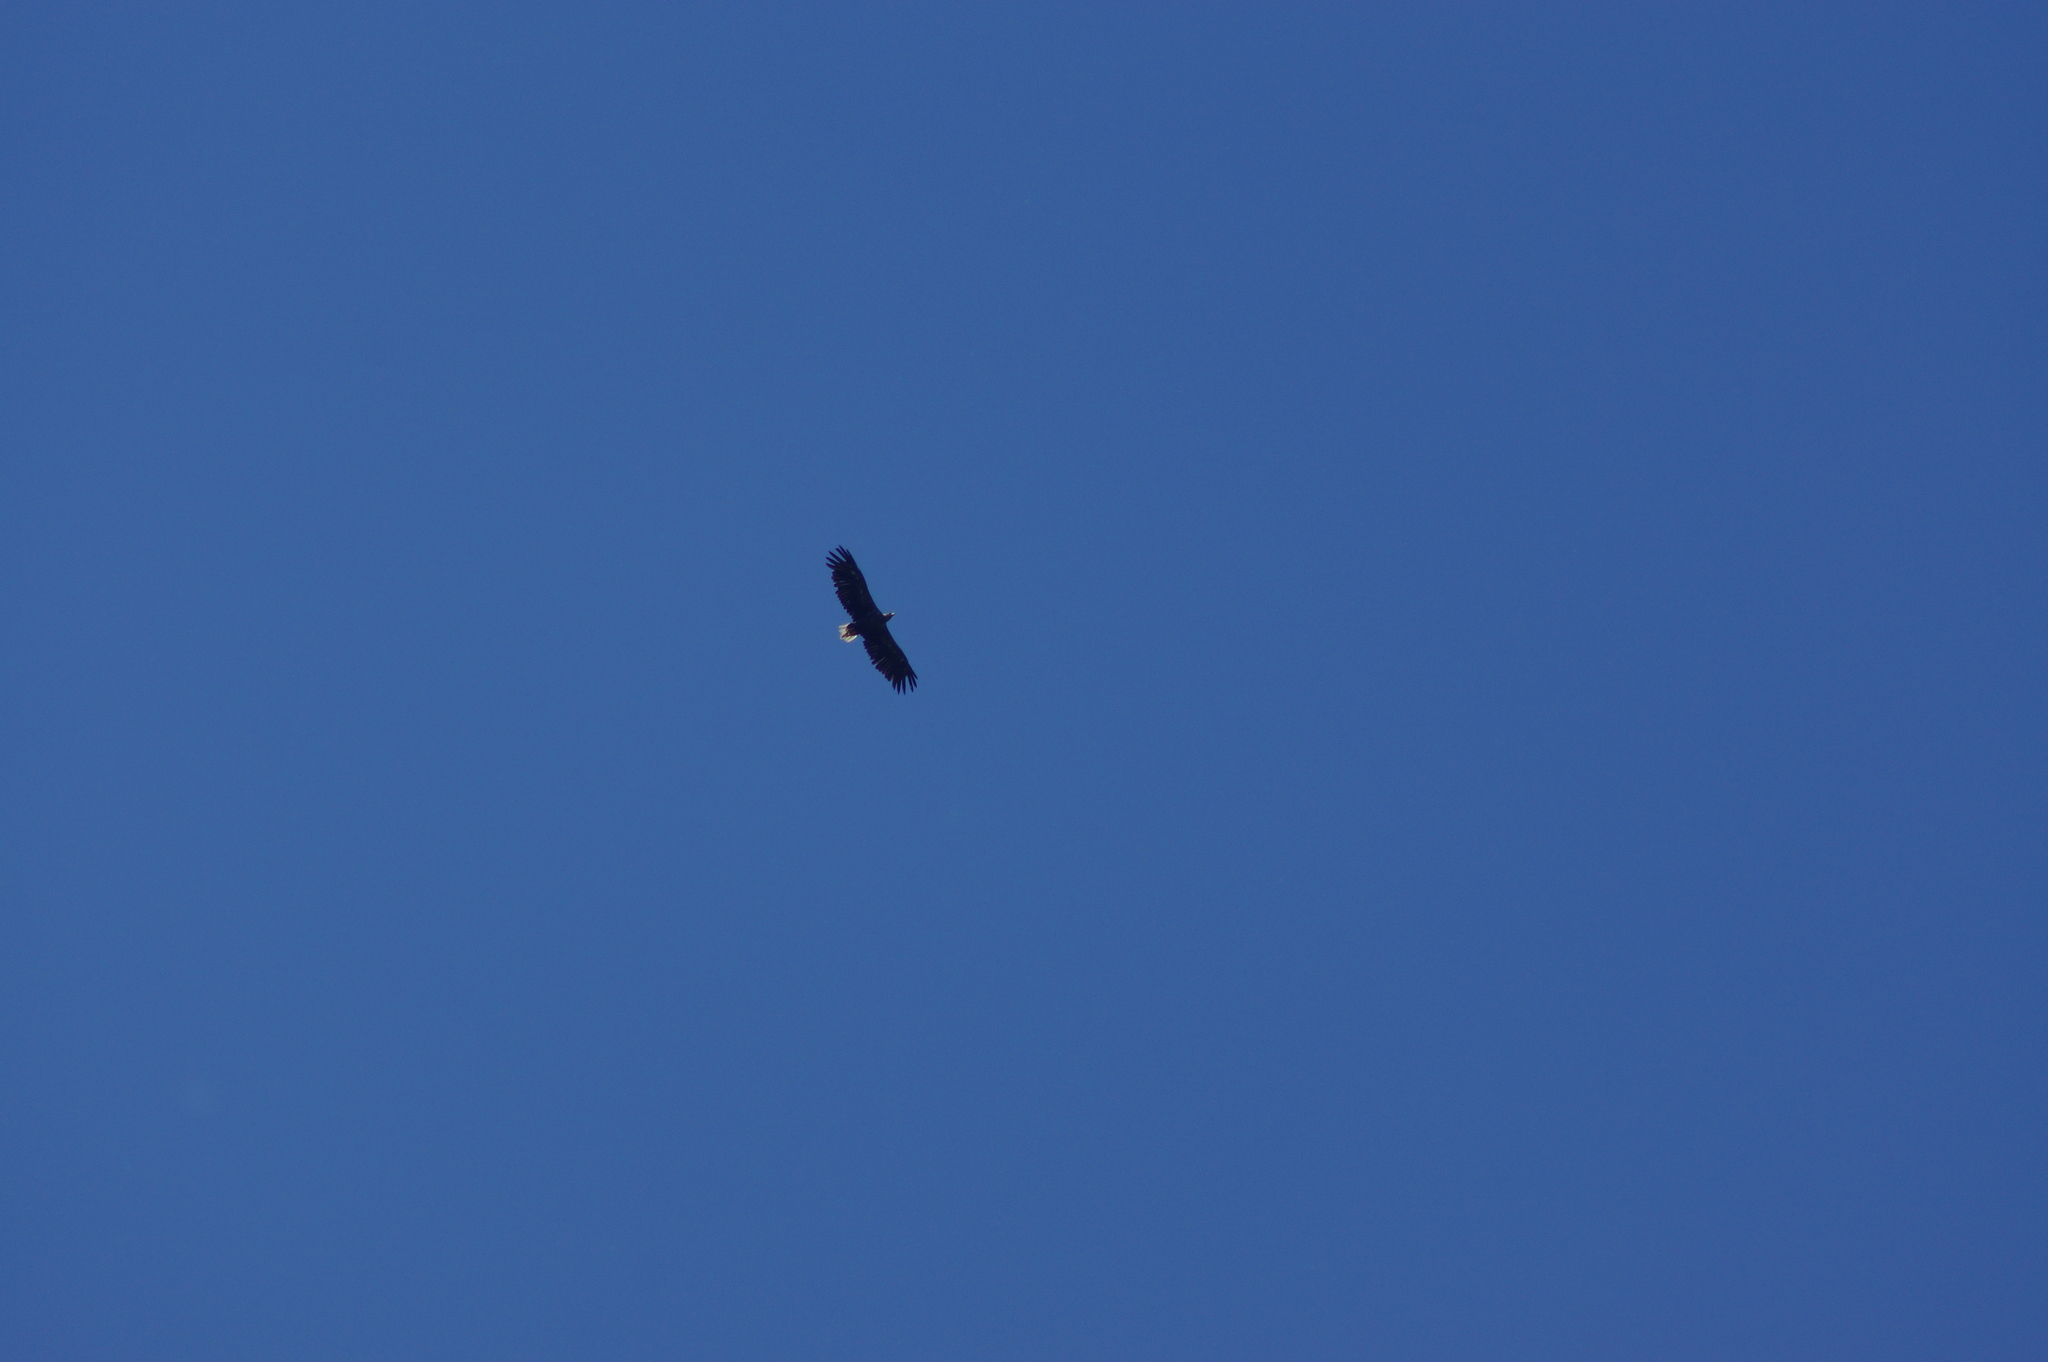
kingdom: Animalia
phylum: Chordata
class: Aves
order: Accipitriformes
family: Accipitridae
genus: Haliaeetus
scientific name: Haliaeetus albicilla
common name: White-tailed eagle
